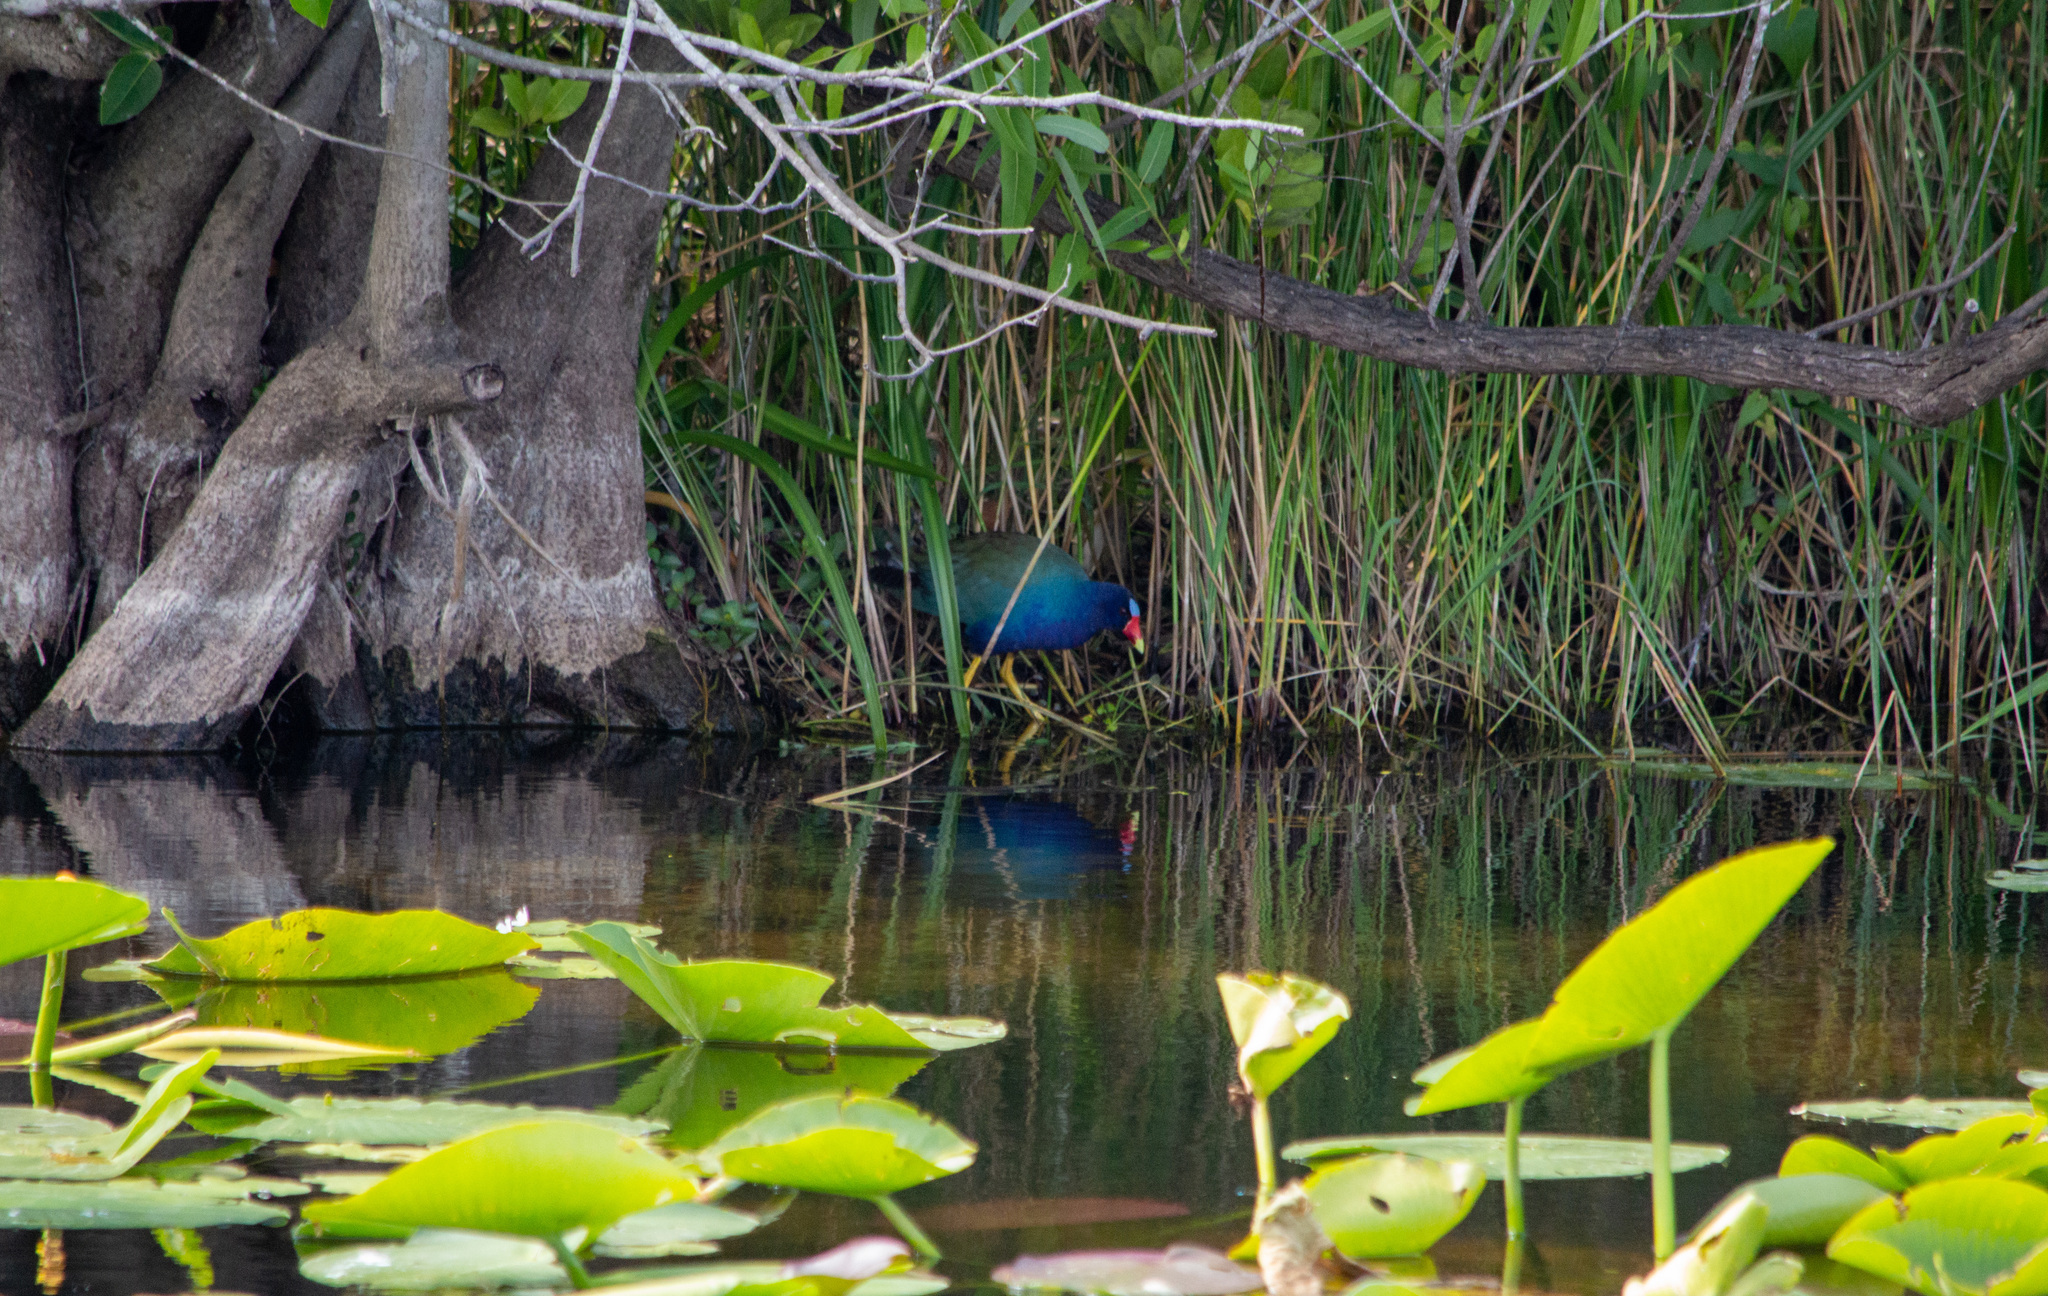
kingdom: Animalia
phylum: Chordata
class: Aves
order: Gruiformes
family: Rallidae
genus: Porphyrio
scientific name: Porphyrio martinica
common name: Purple gallinule
